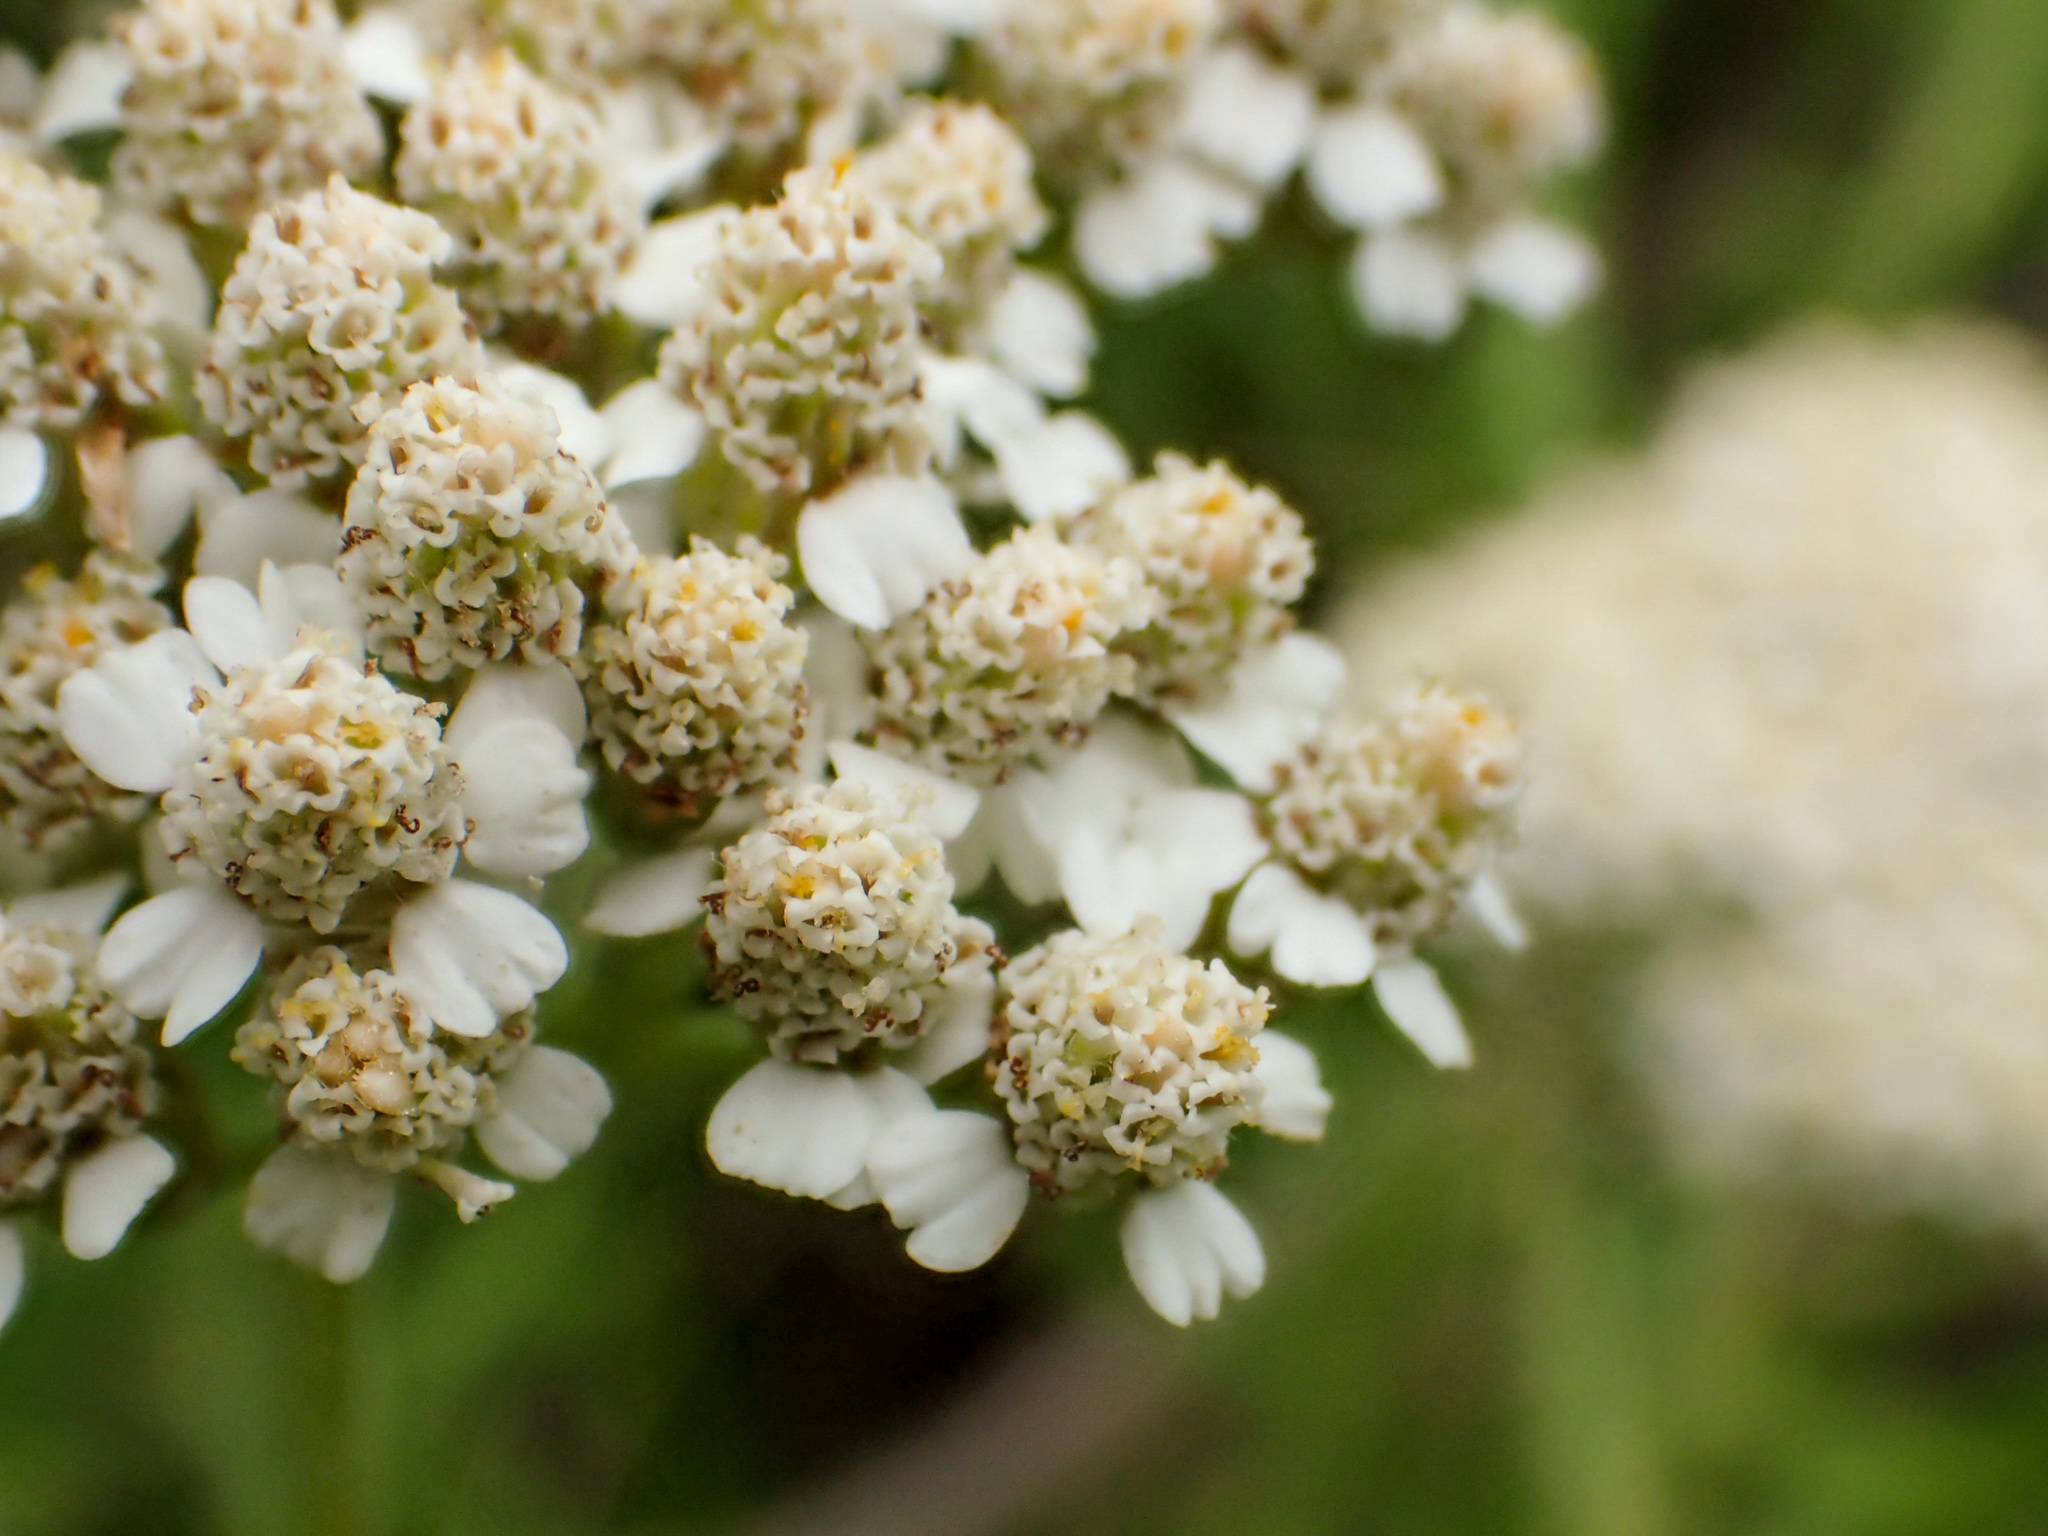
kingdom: Plantae
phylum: Tracheophyta
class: Magnoliopsida
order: Asterales
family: Asteraceae
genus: Achillea
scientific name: Achillea millefolium
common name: Yarrow
